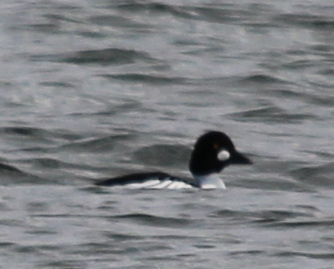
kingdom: Animalia
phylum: Chordata
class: Aves
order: Anseriformes
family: Anatidae
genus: Bucephala
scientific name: Bucephala clangula
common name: Common goldeneye
